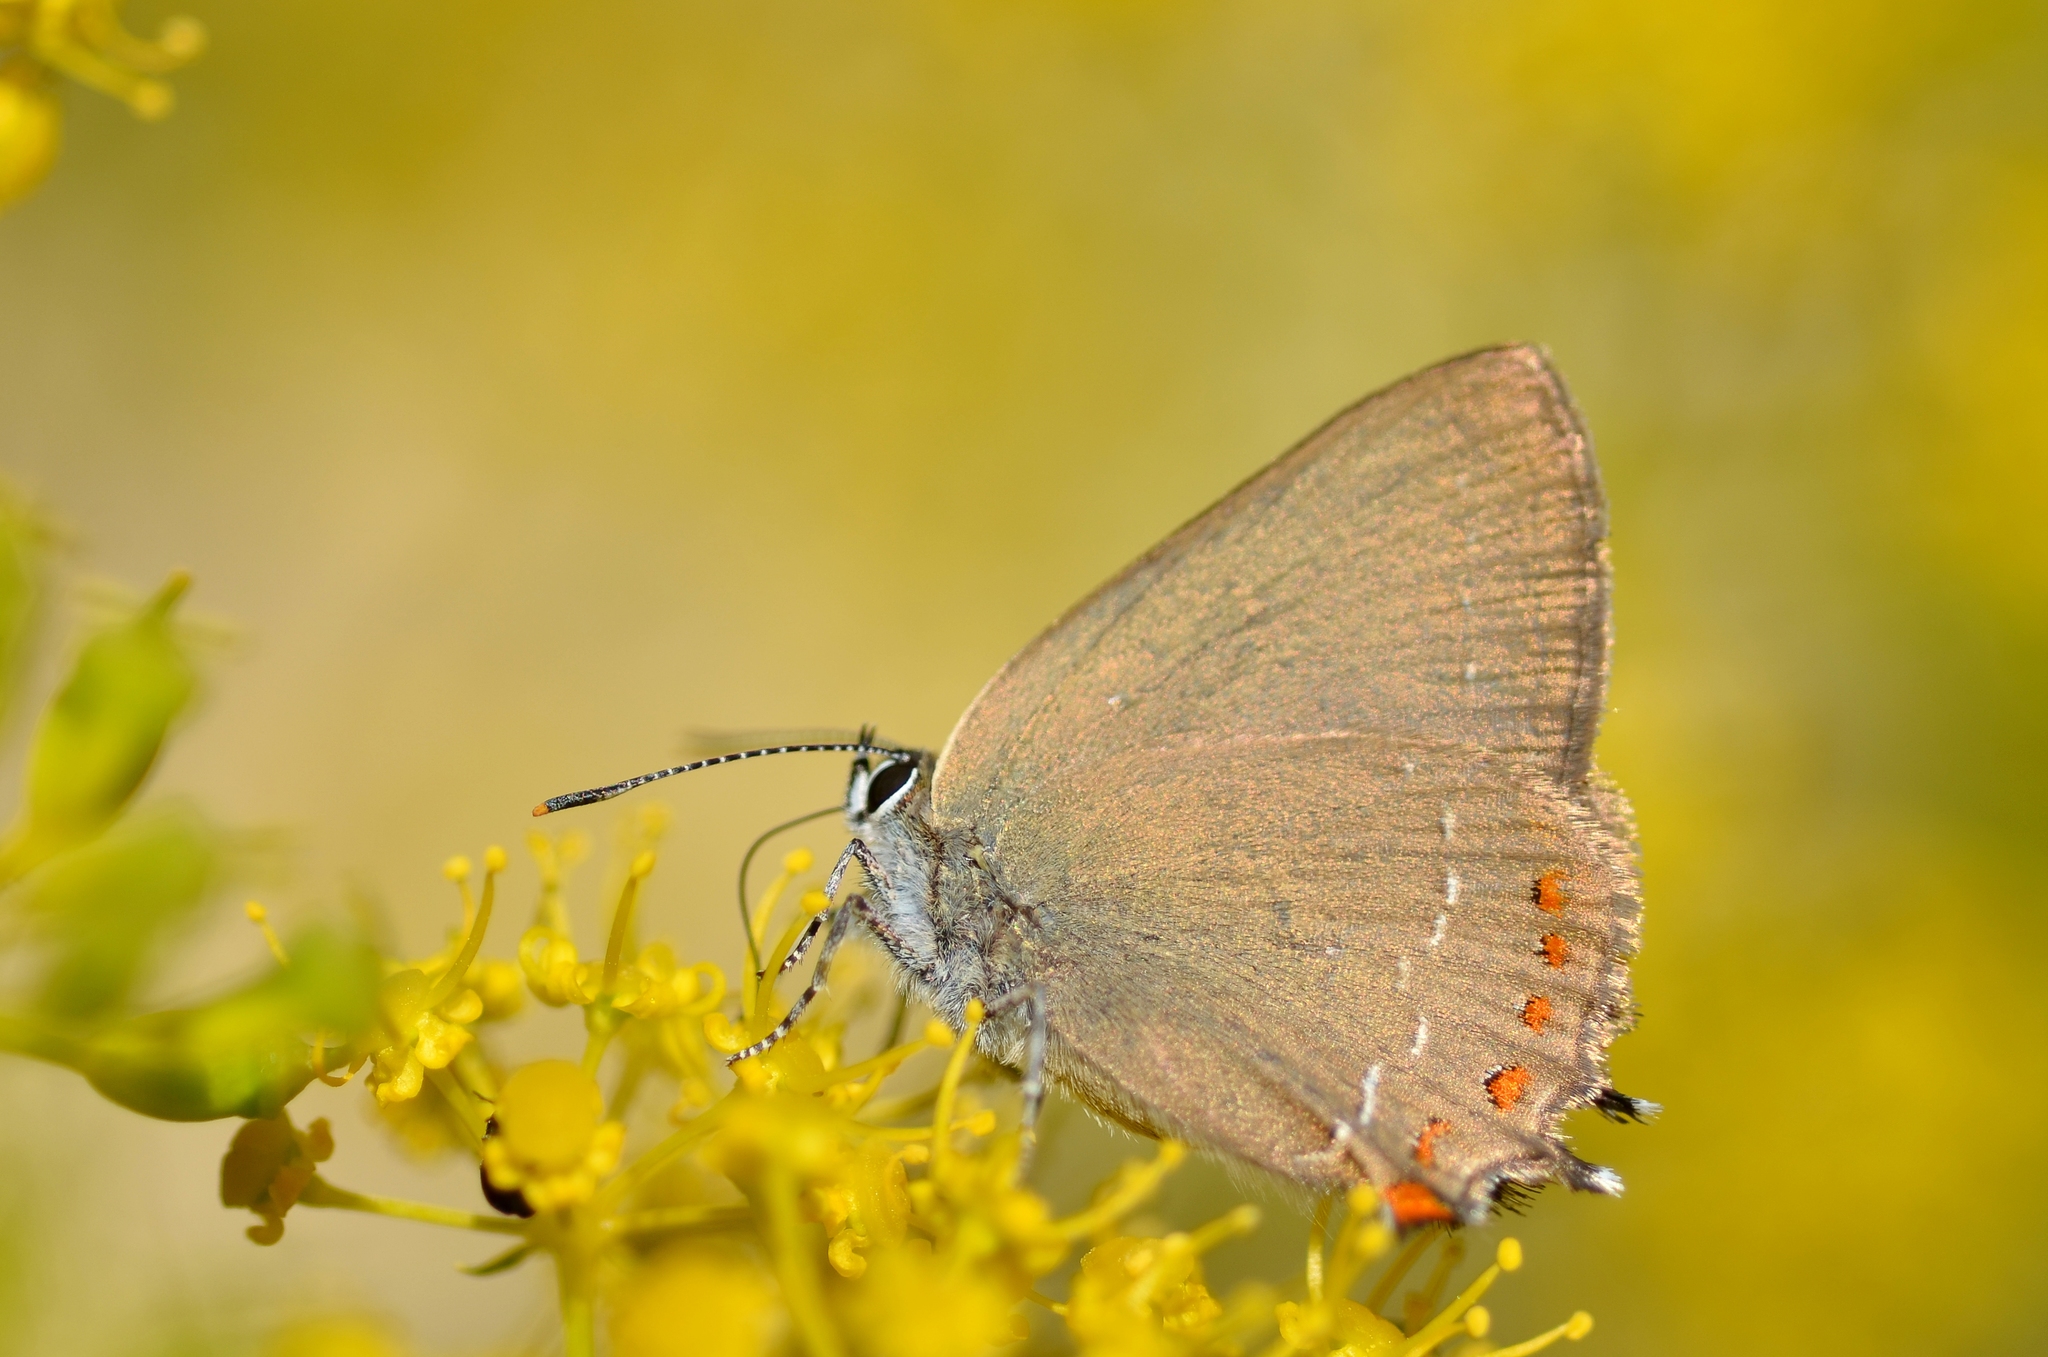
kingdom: Animalia
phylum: Arthropoda
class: Insecta
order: Lepidoptera
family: Lycaenidae
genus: Fixsenia
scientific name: Fixsenia esculi
